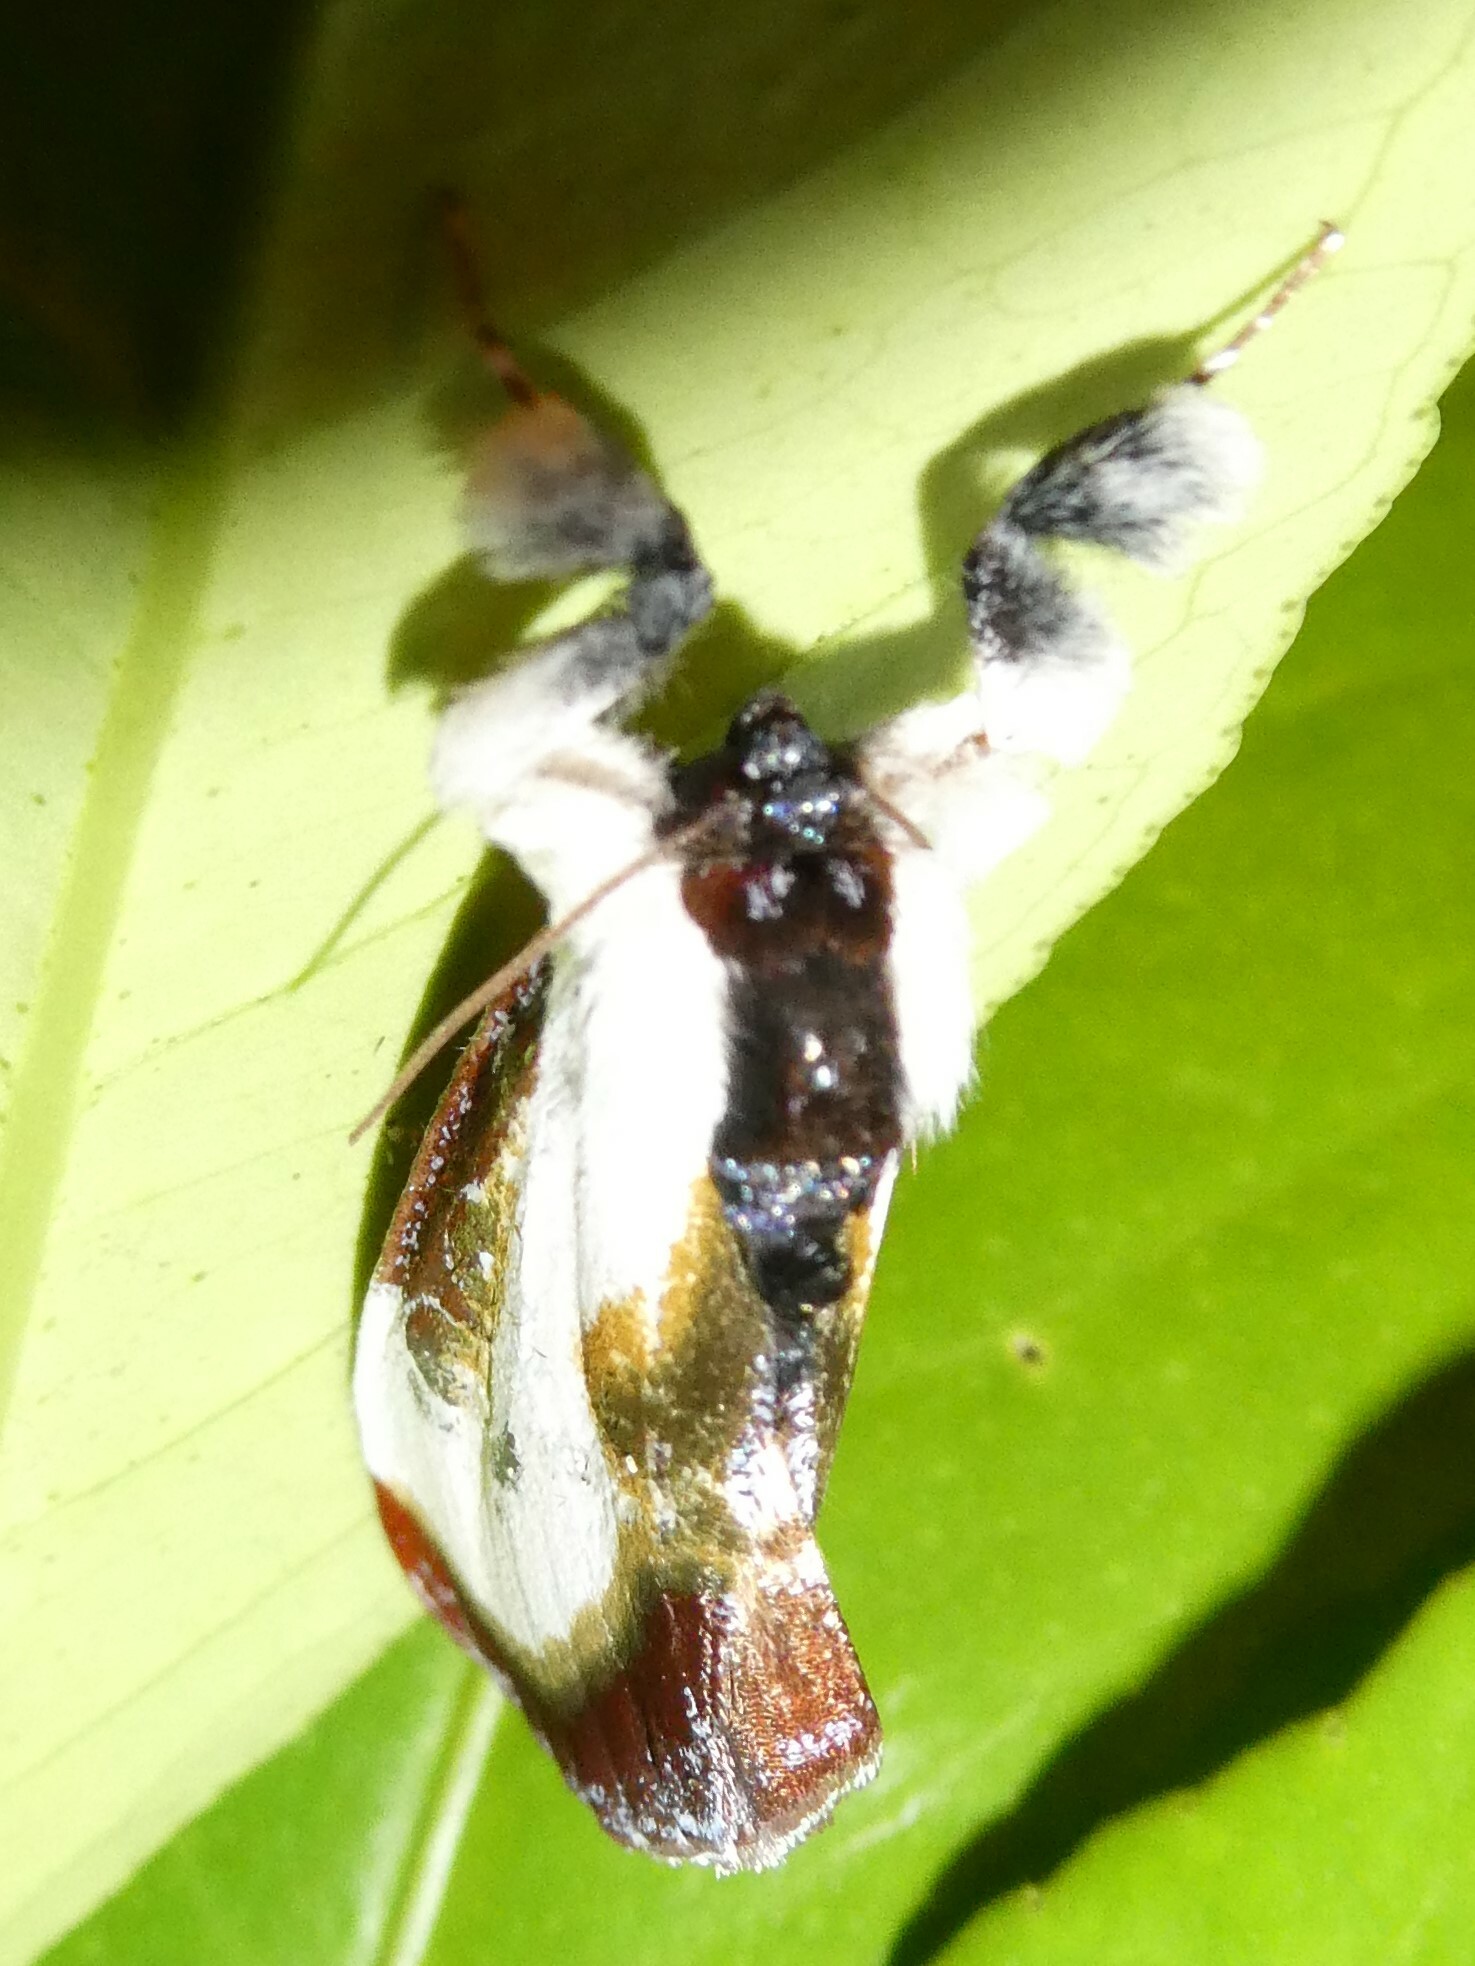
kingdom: Animalia
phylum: Arthropoda
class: Insecta
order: Lepidoptera
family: Noctuidae
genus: Eudryas
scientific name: Eudryas grata
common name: Beautiful wood-nymph
